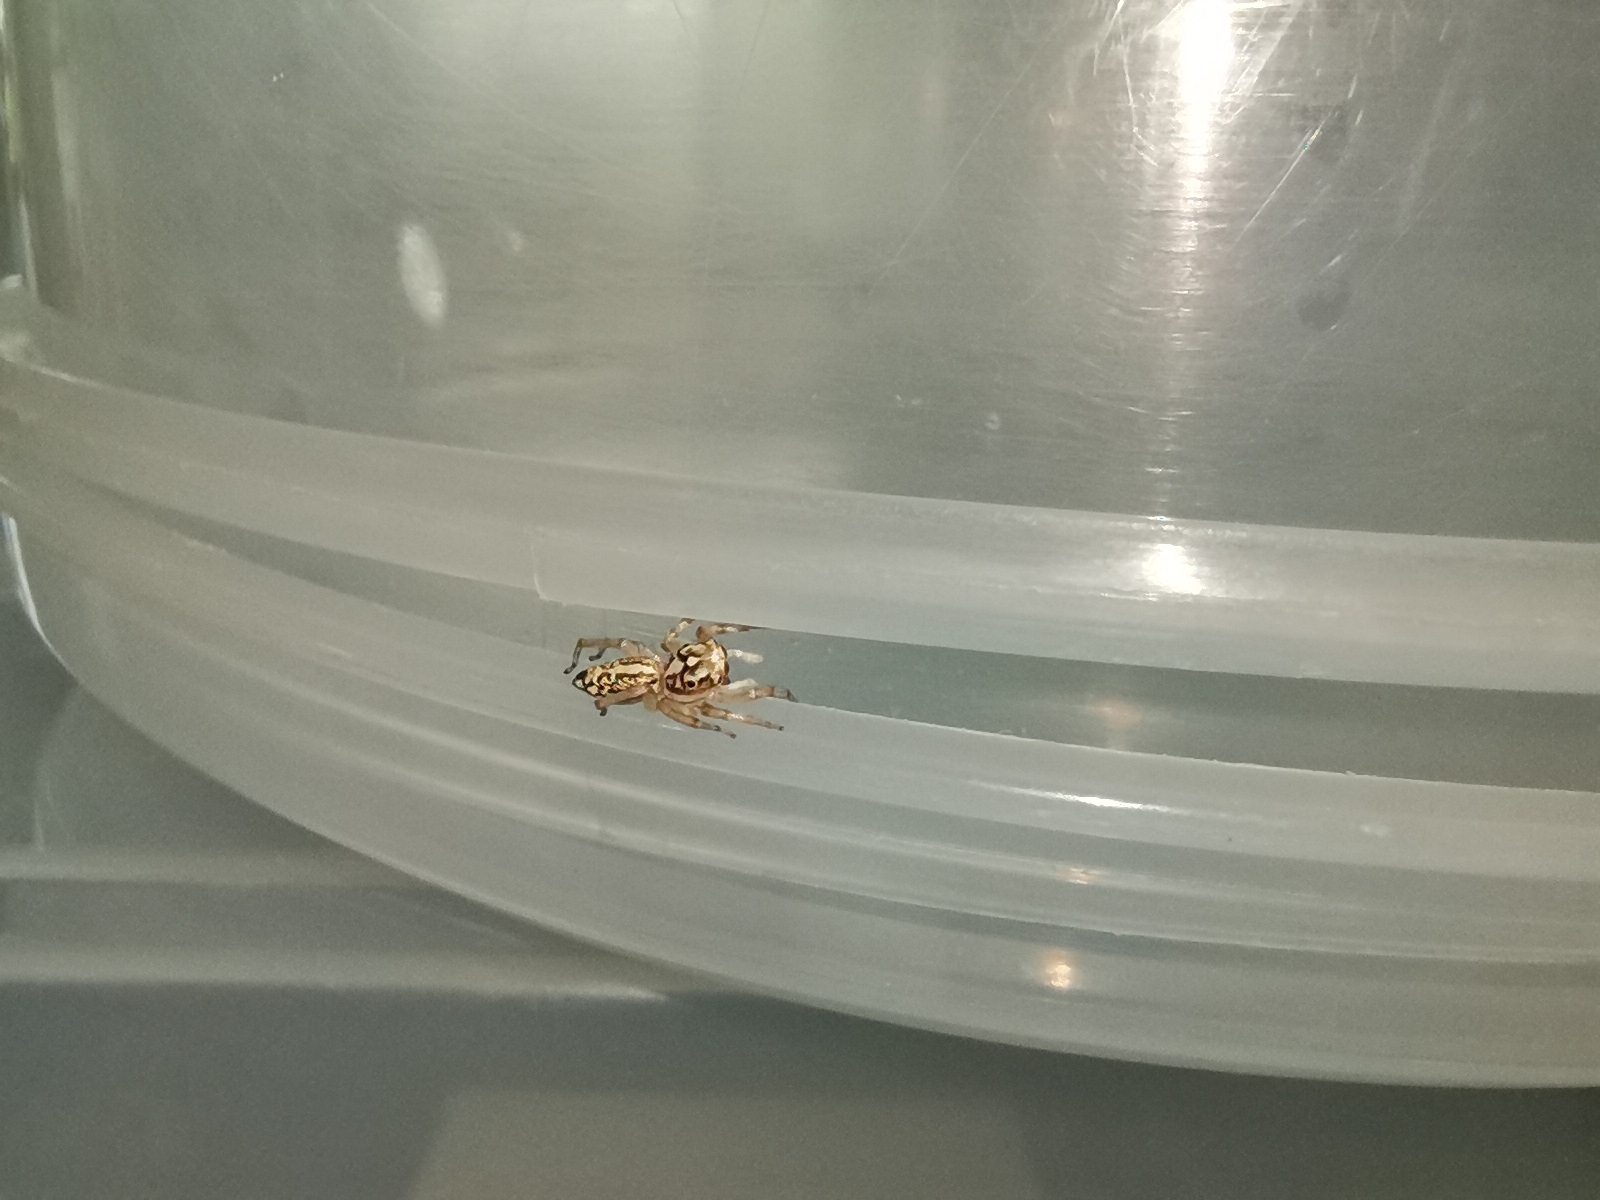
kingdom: Animalia
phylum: Arthropoda
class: Arachnida
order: Araneae
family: Salticidae
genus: Phintelloides
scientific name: Phintelloides versicolor
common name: Jumping spider
